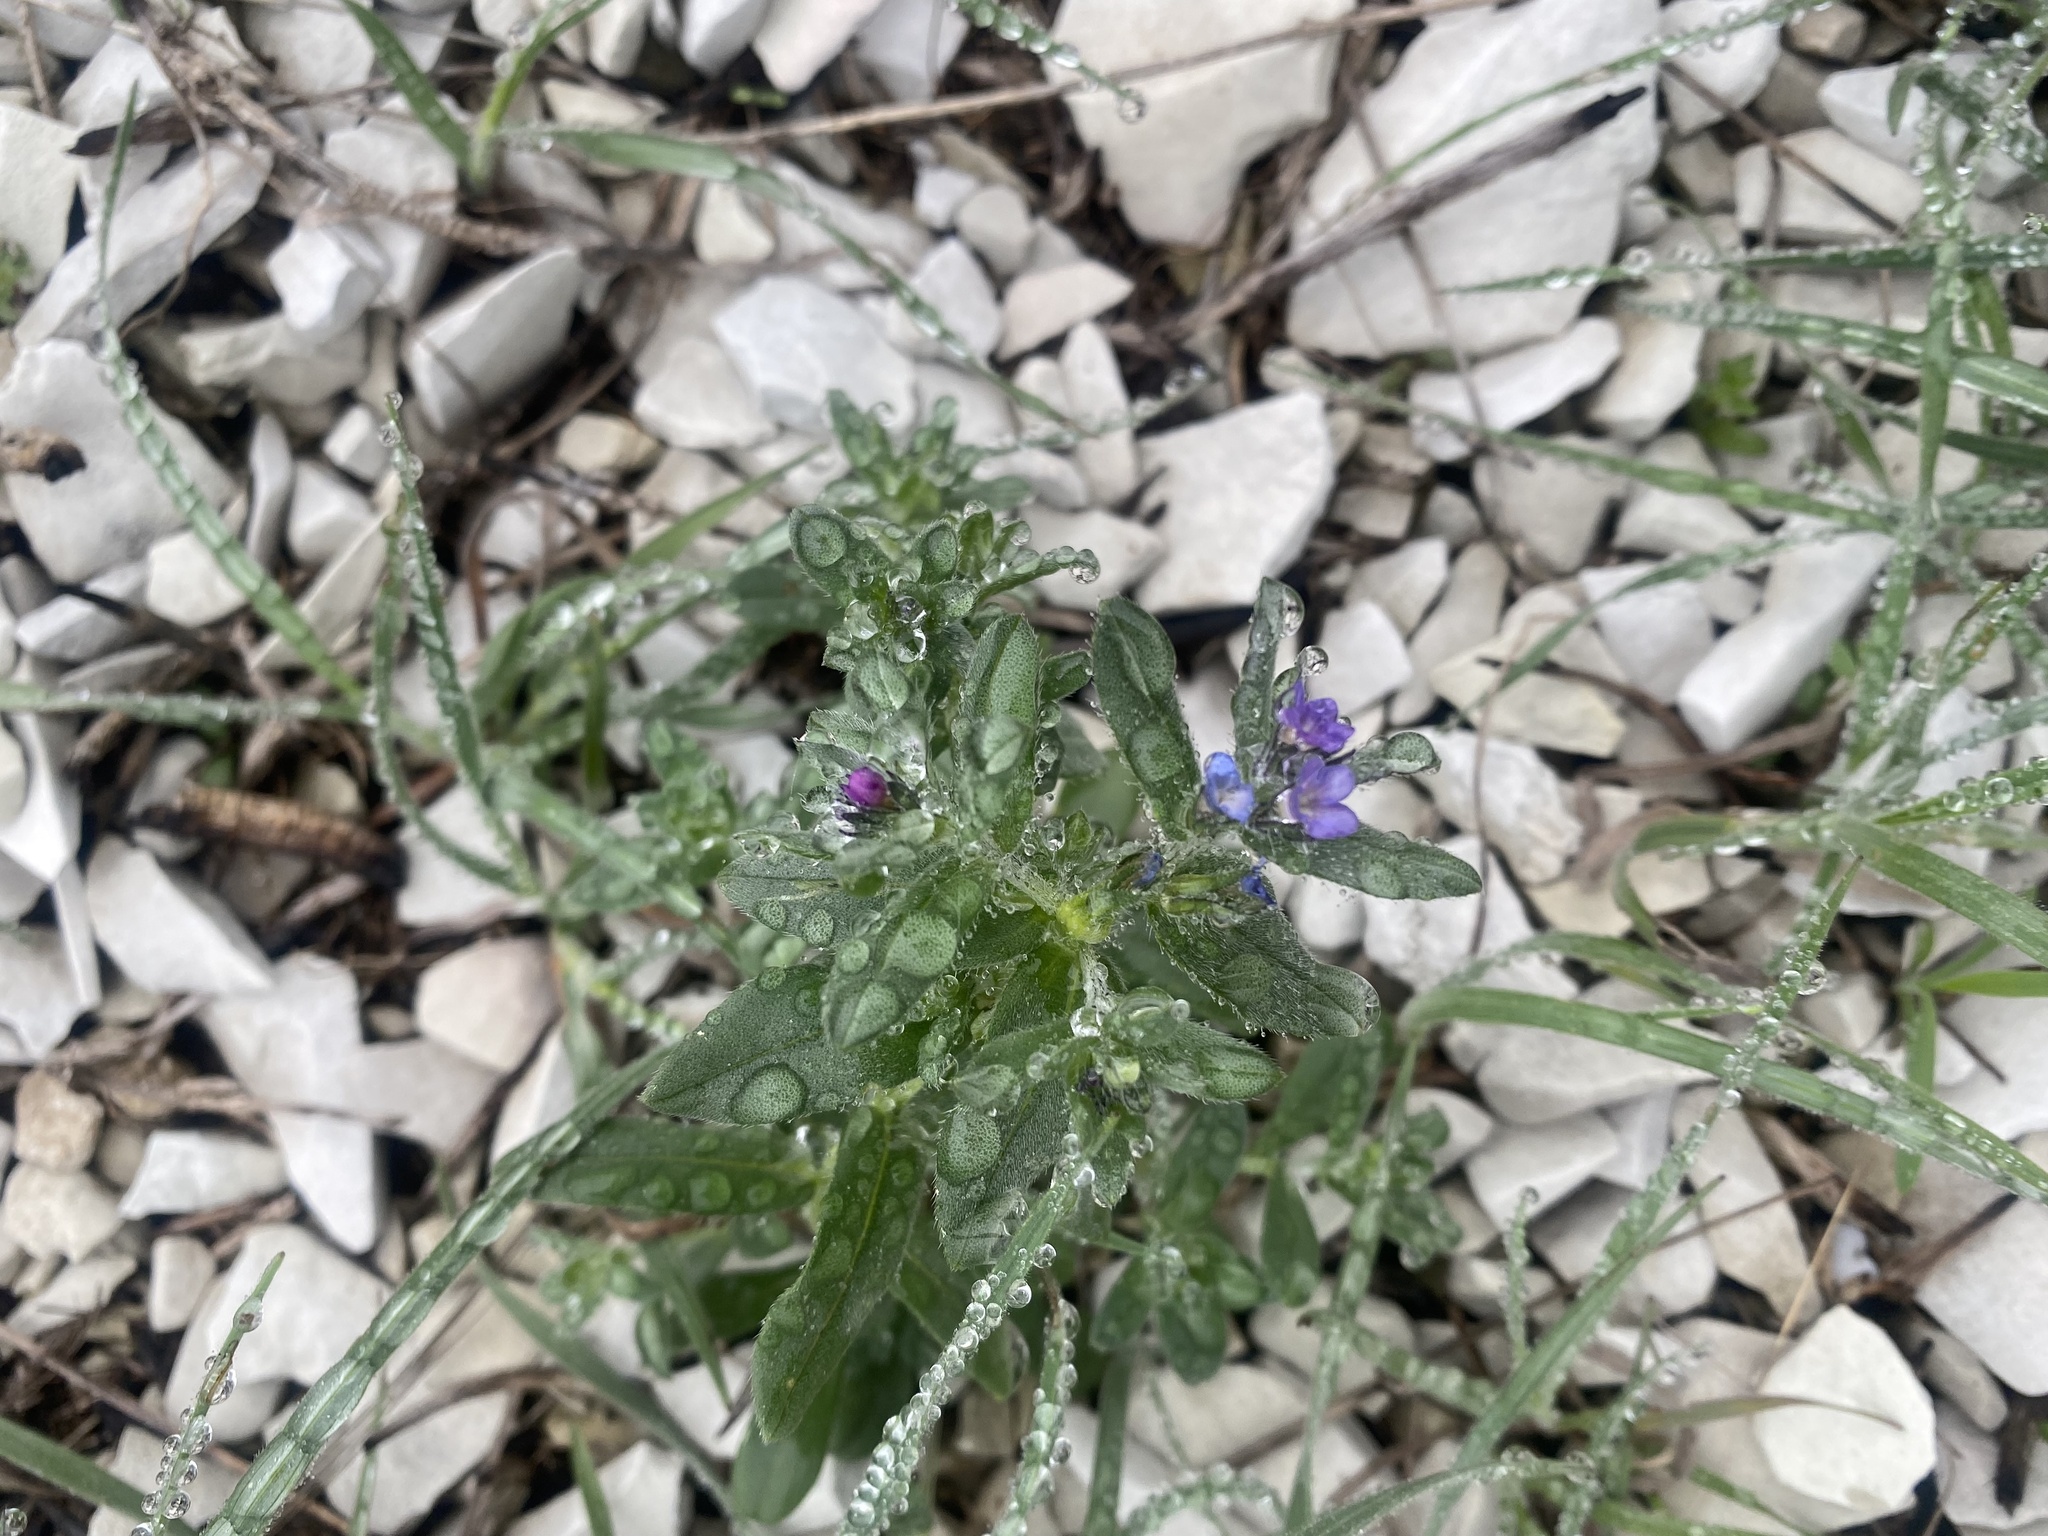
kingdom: Plantae
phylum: Tracheophyta
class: Magnoliopsida
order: Boraginales
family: Boraginaceae
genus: Buglossoides
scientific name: Buglossoides tenuiflora
